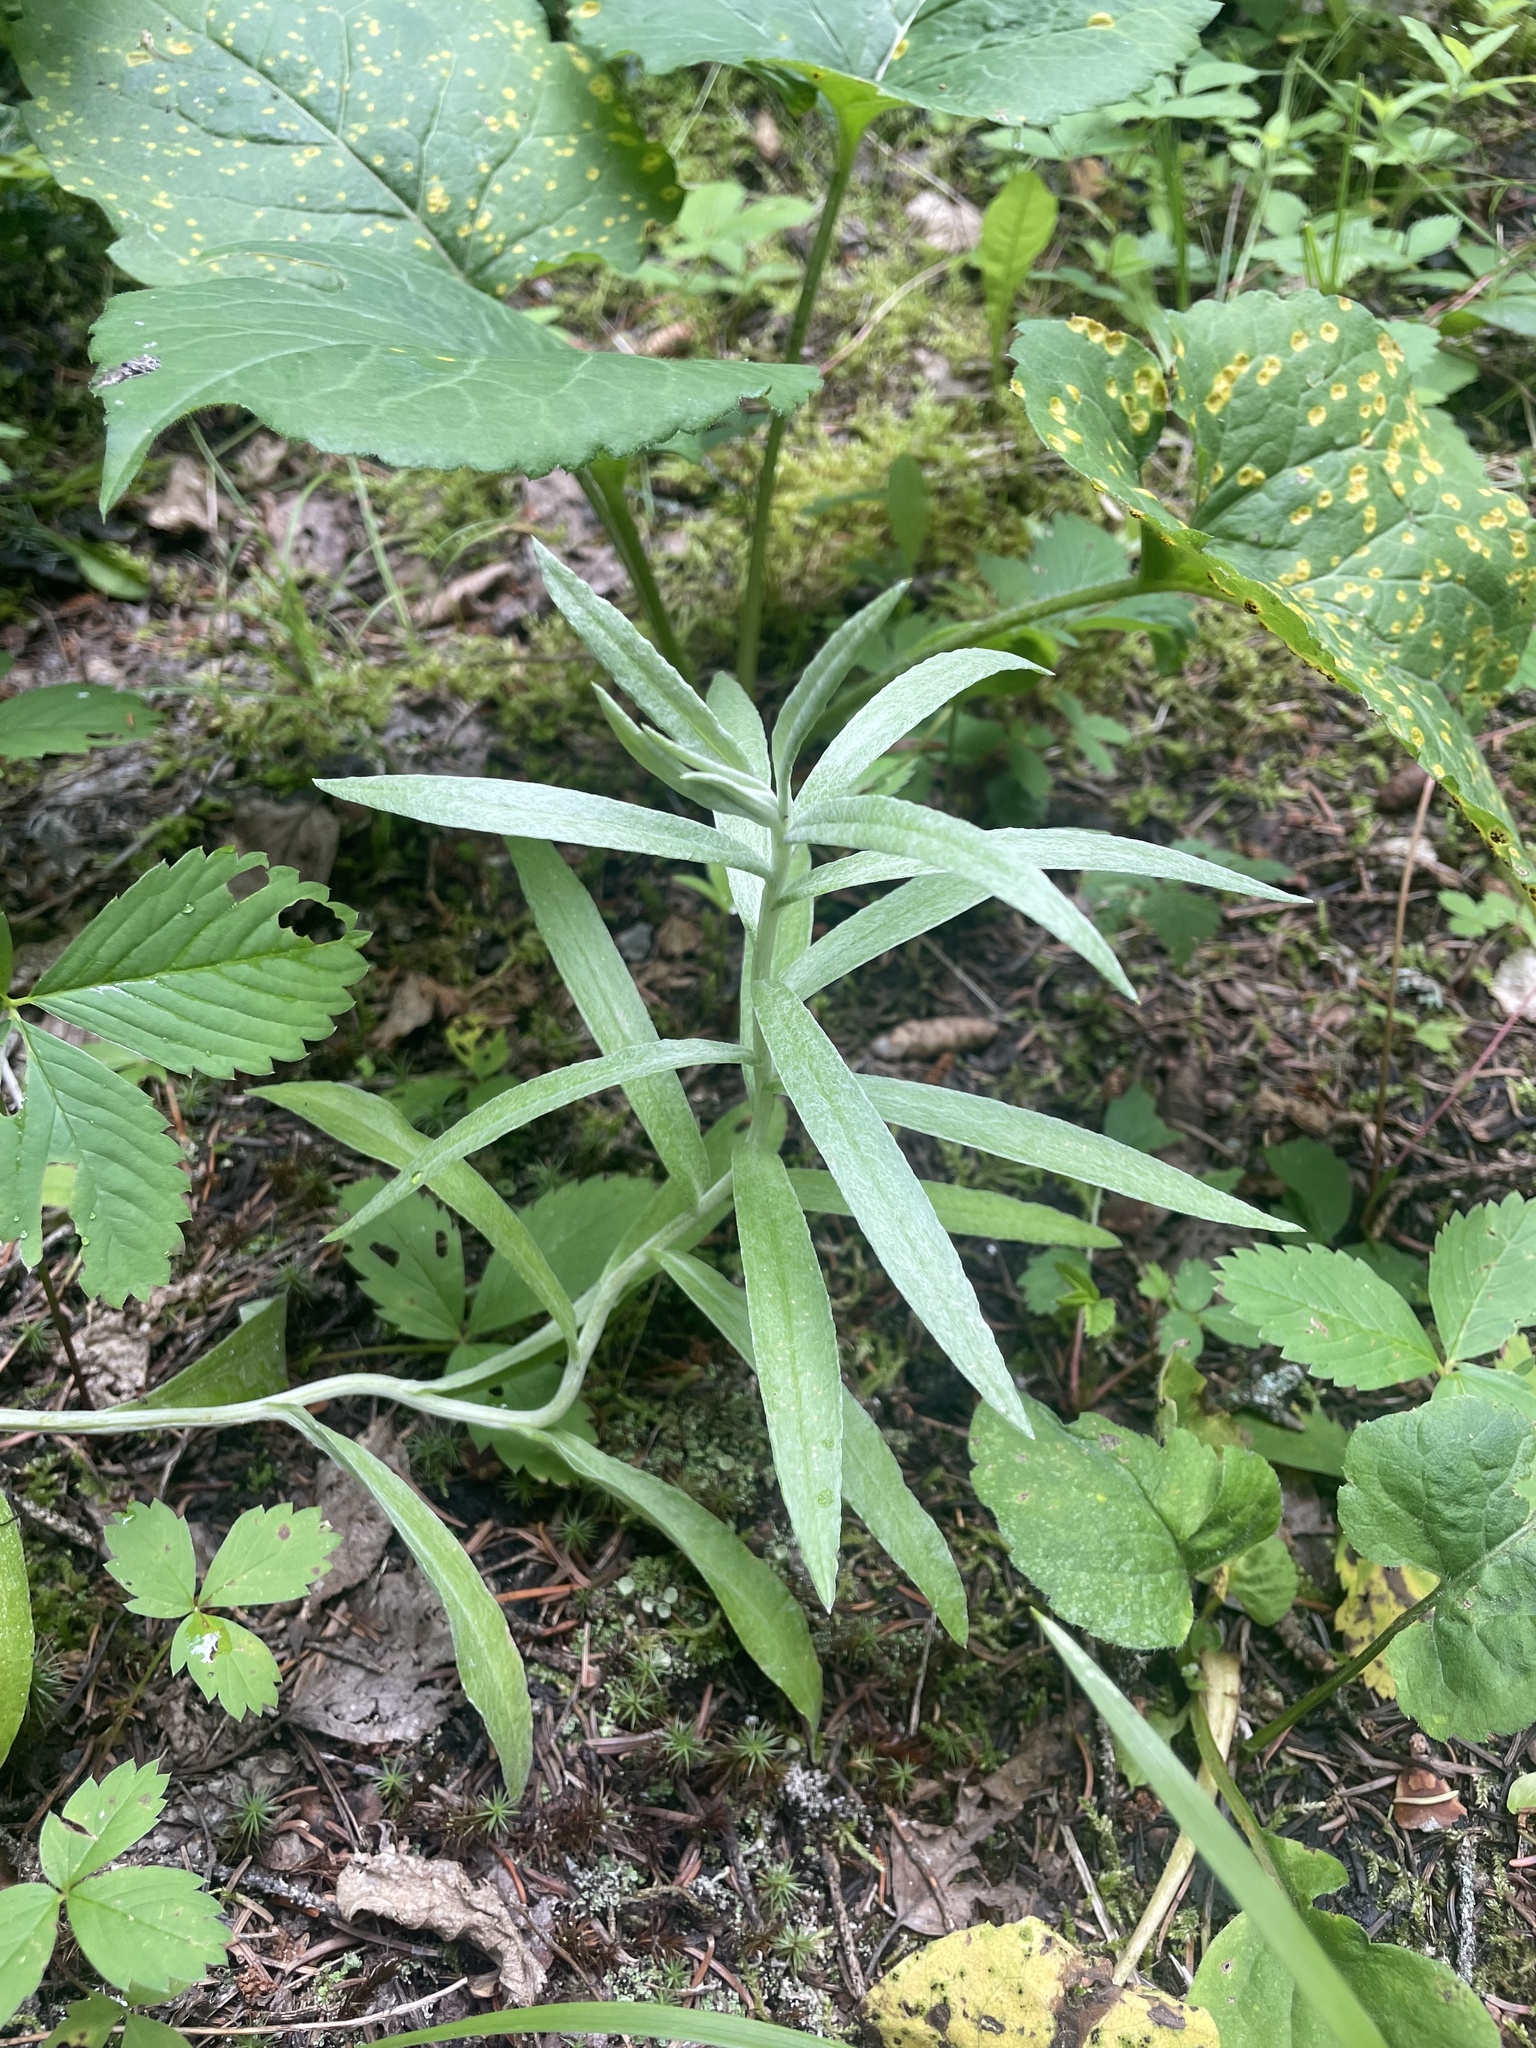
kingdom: Plantae
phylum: Tracheophyta
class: Magnoliopsida
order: Asterales
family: Asteraceae
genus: Anaphalis
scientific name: Anaphalis margaritacea
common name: Pearly everlasting
